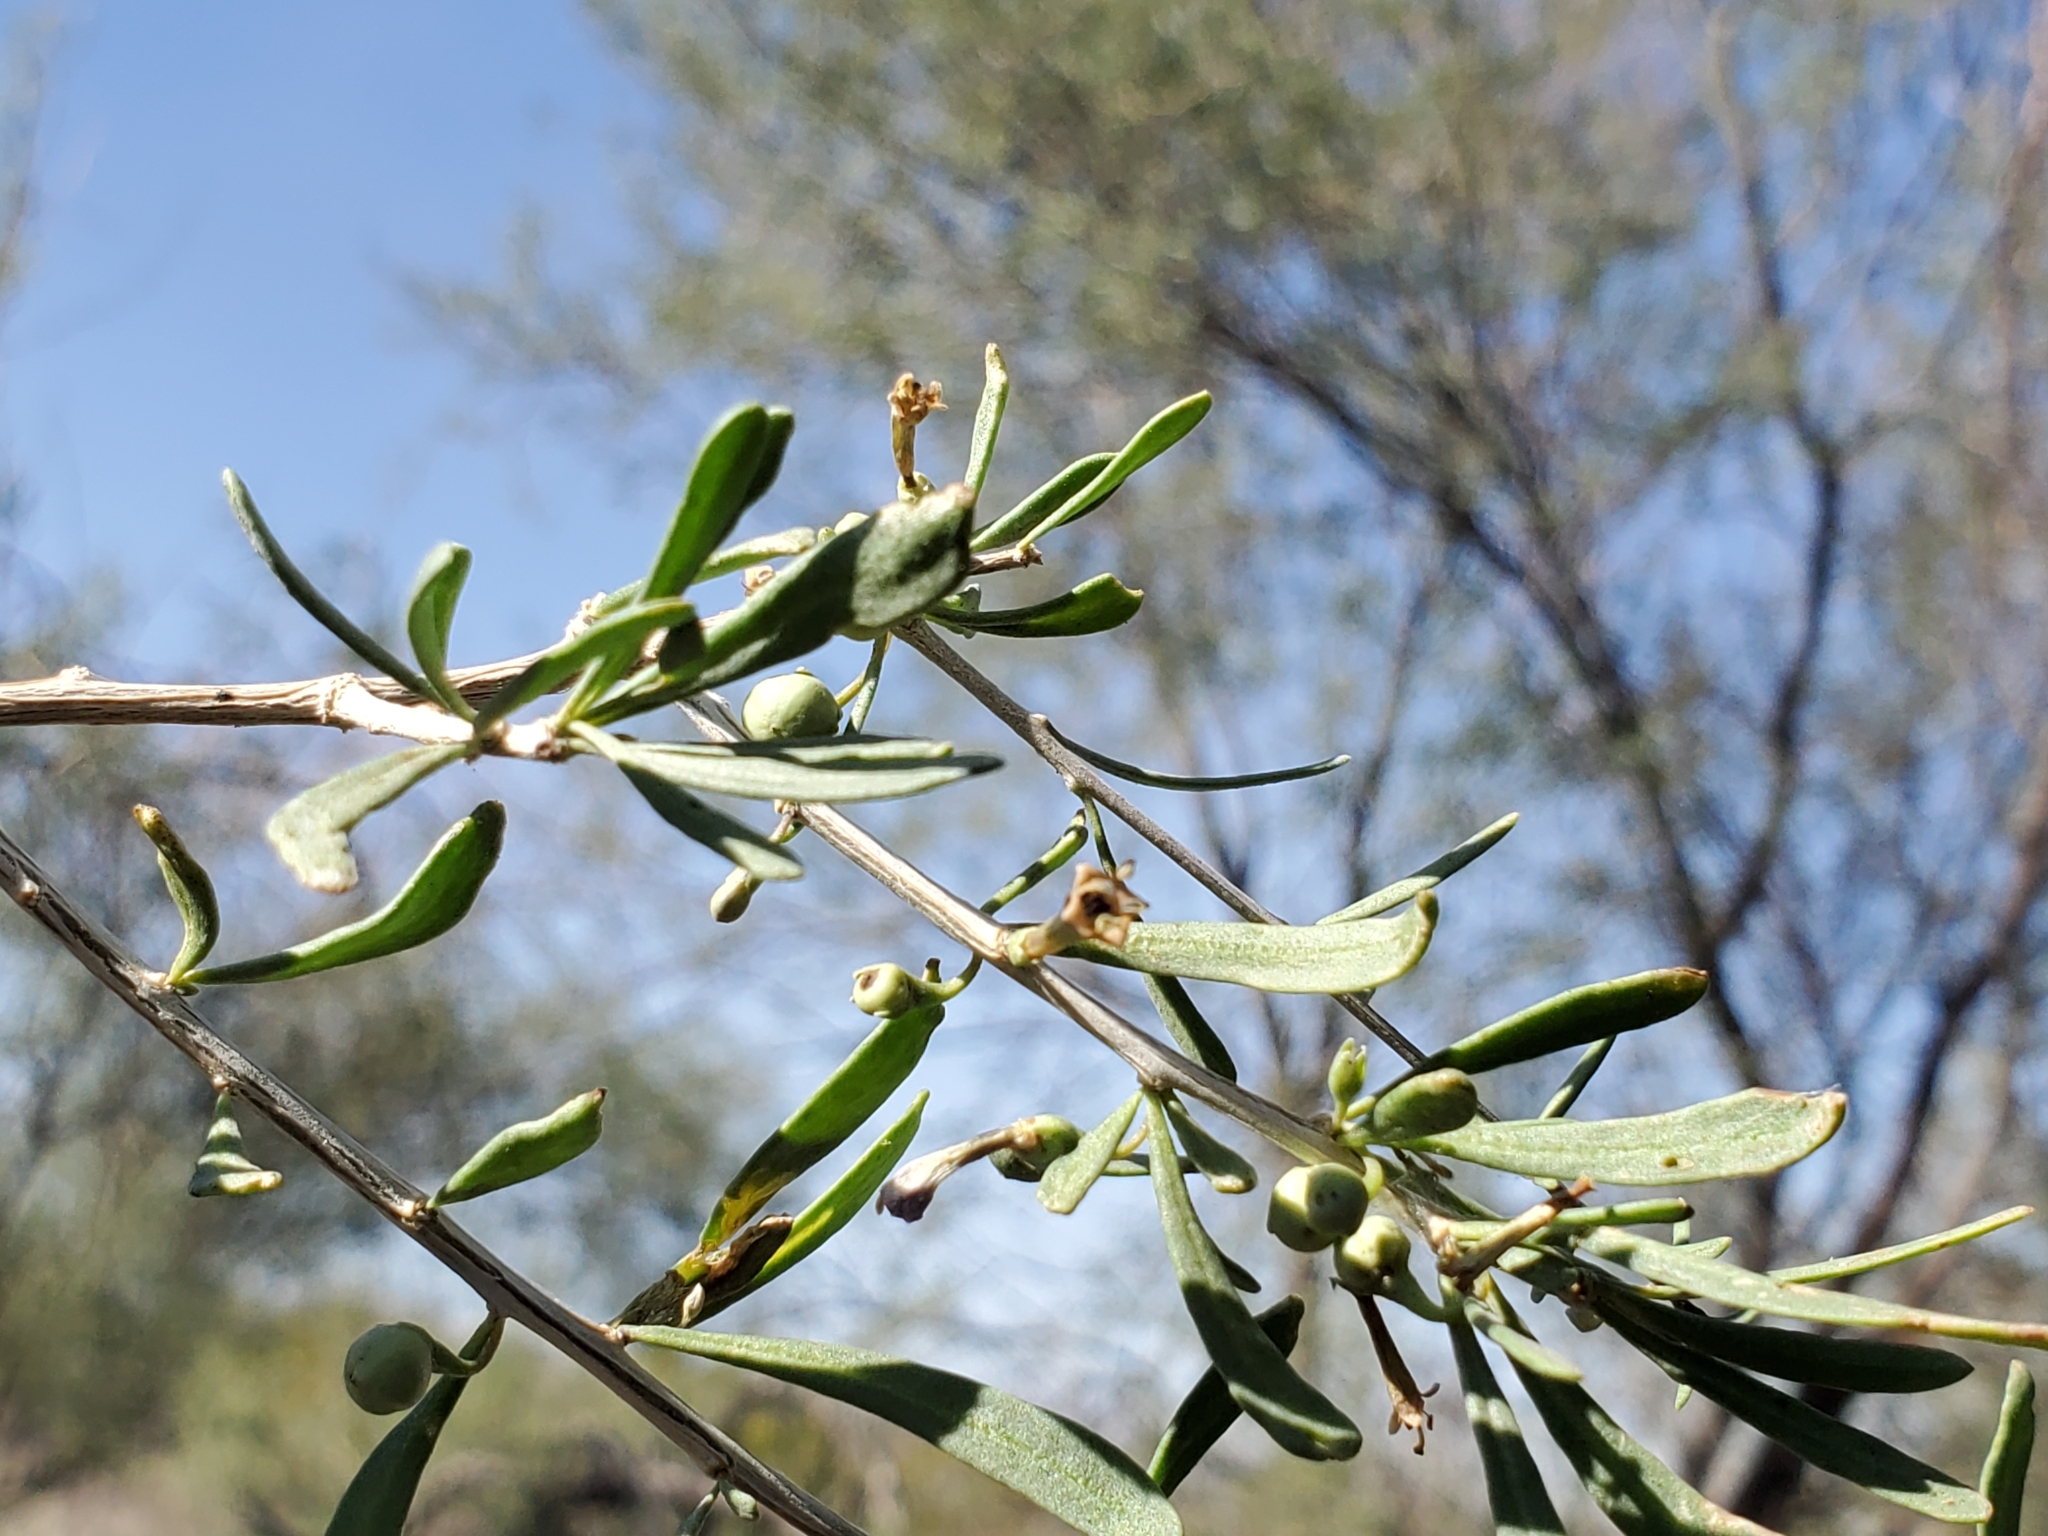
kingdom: Plantae
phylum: Tracheophyta
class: Magnoliopsida
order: Solanales
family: Solanaceae
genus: Lycium
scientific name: Lycium andersonii
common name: Water-jacket
